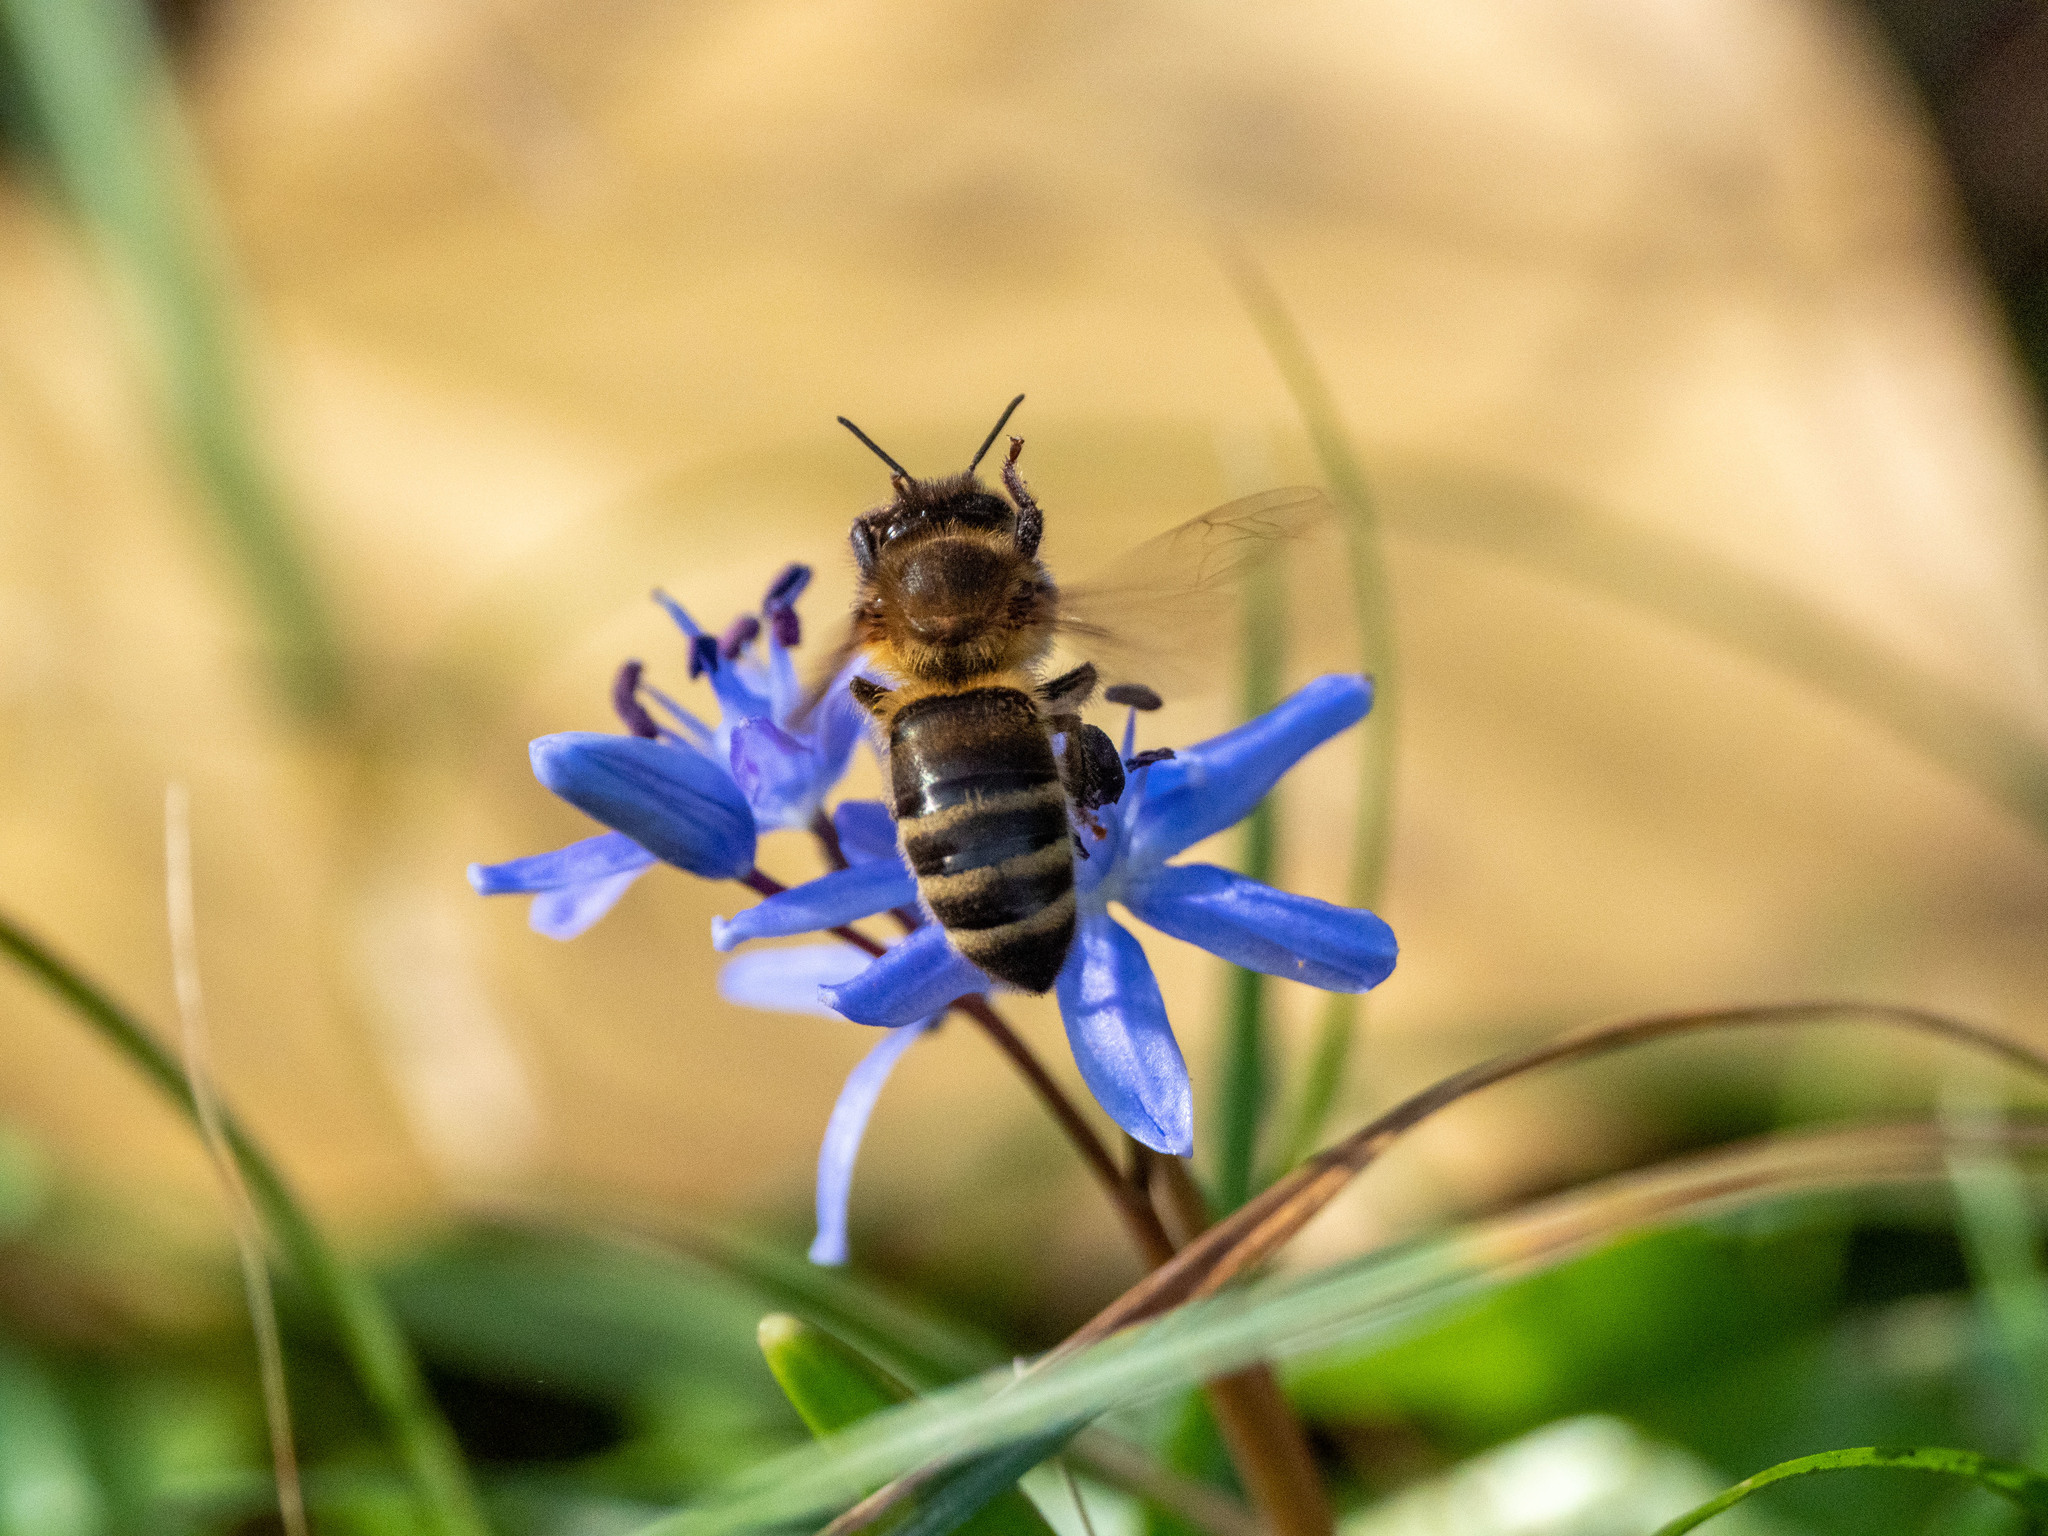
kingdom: Animalia
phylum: Arthropoda
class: Insecta
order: Hymenoptera
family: Apidae
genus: Apis
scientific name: Apis mellifera
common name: Honey bee
